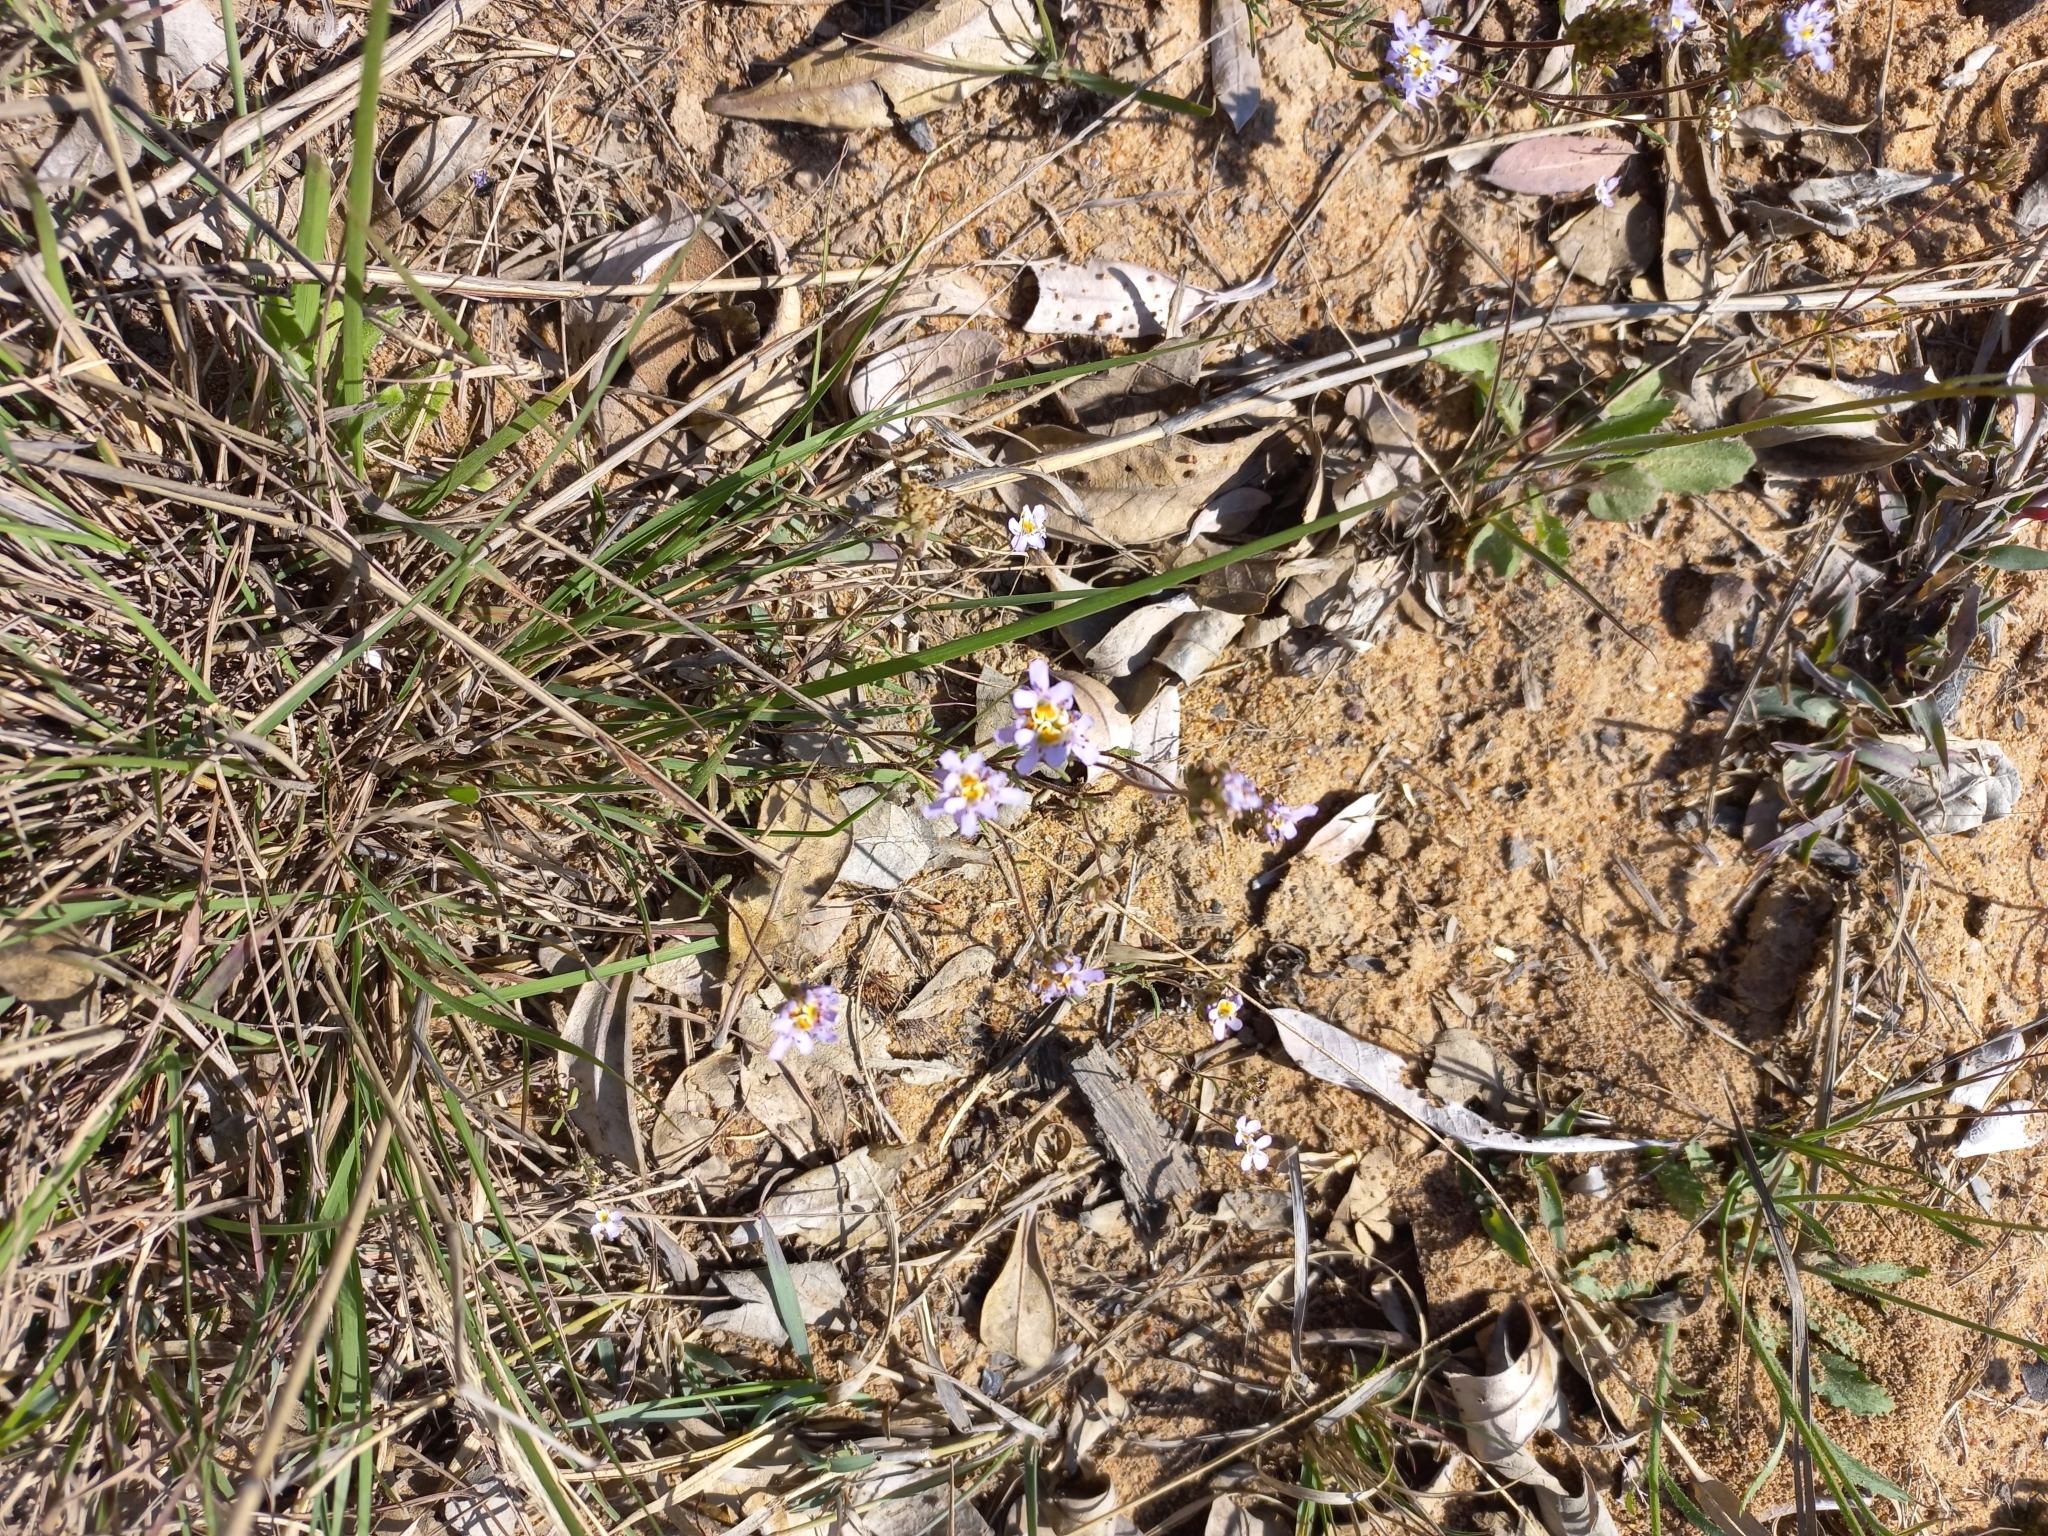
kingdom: Plantae
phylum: Tracheophyta
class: Magnoliopsida
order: Lamiales
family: Scrophulariaceae
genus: Melanospermum
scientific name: Melanospermum foliosum
